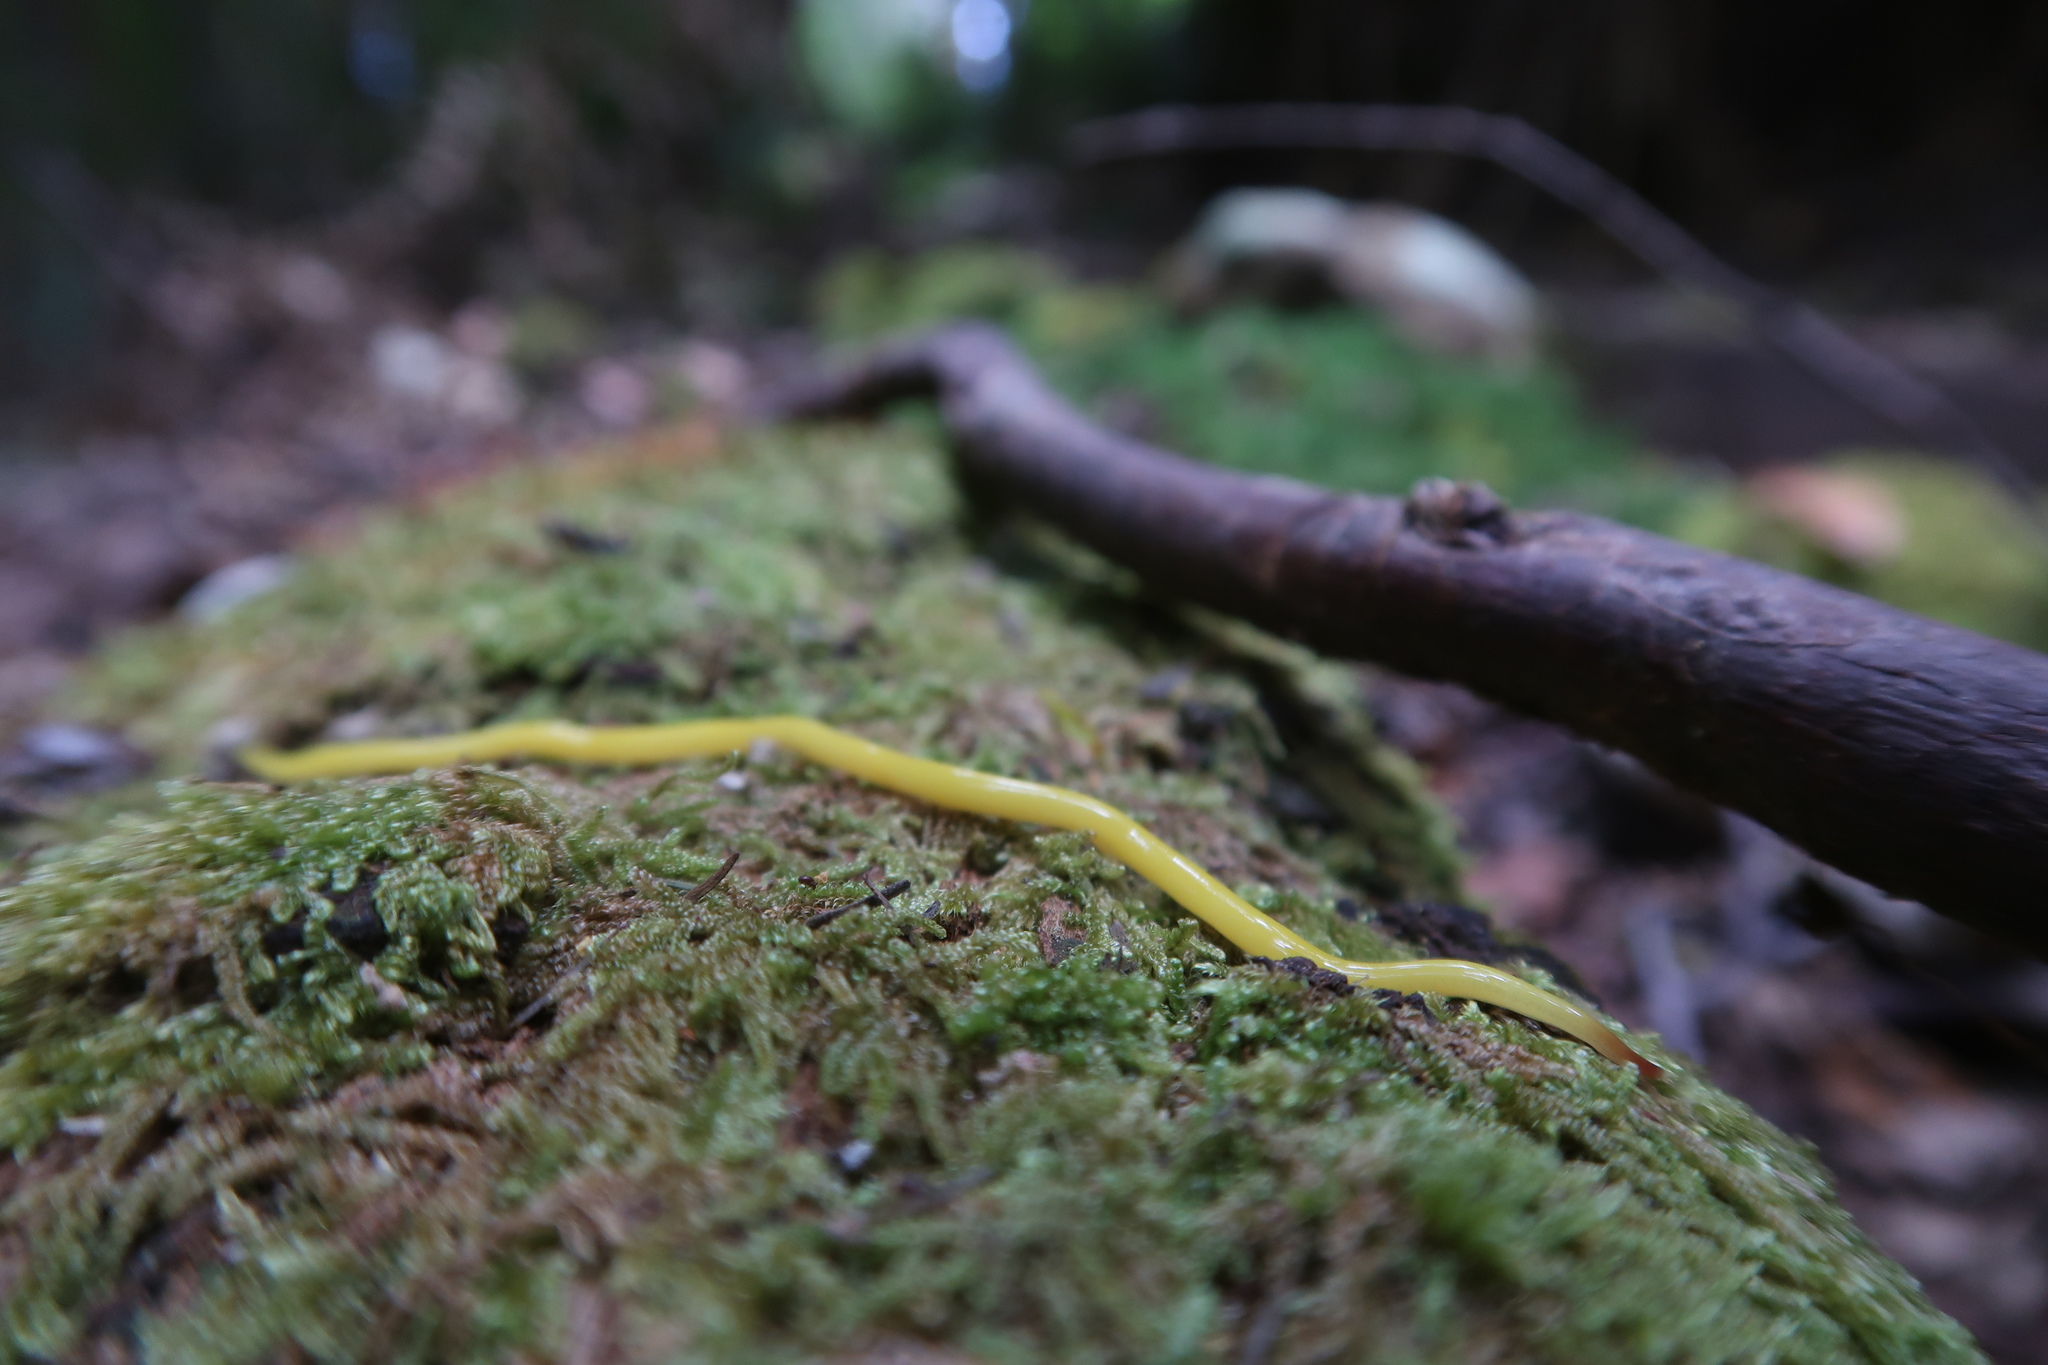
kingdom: Animalia
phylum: Platyhelminthes
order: Tricladida
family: Geoplanidae
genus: Fletchamia
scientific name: Fletchamia sugdeni
